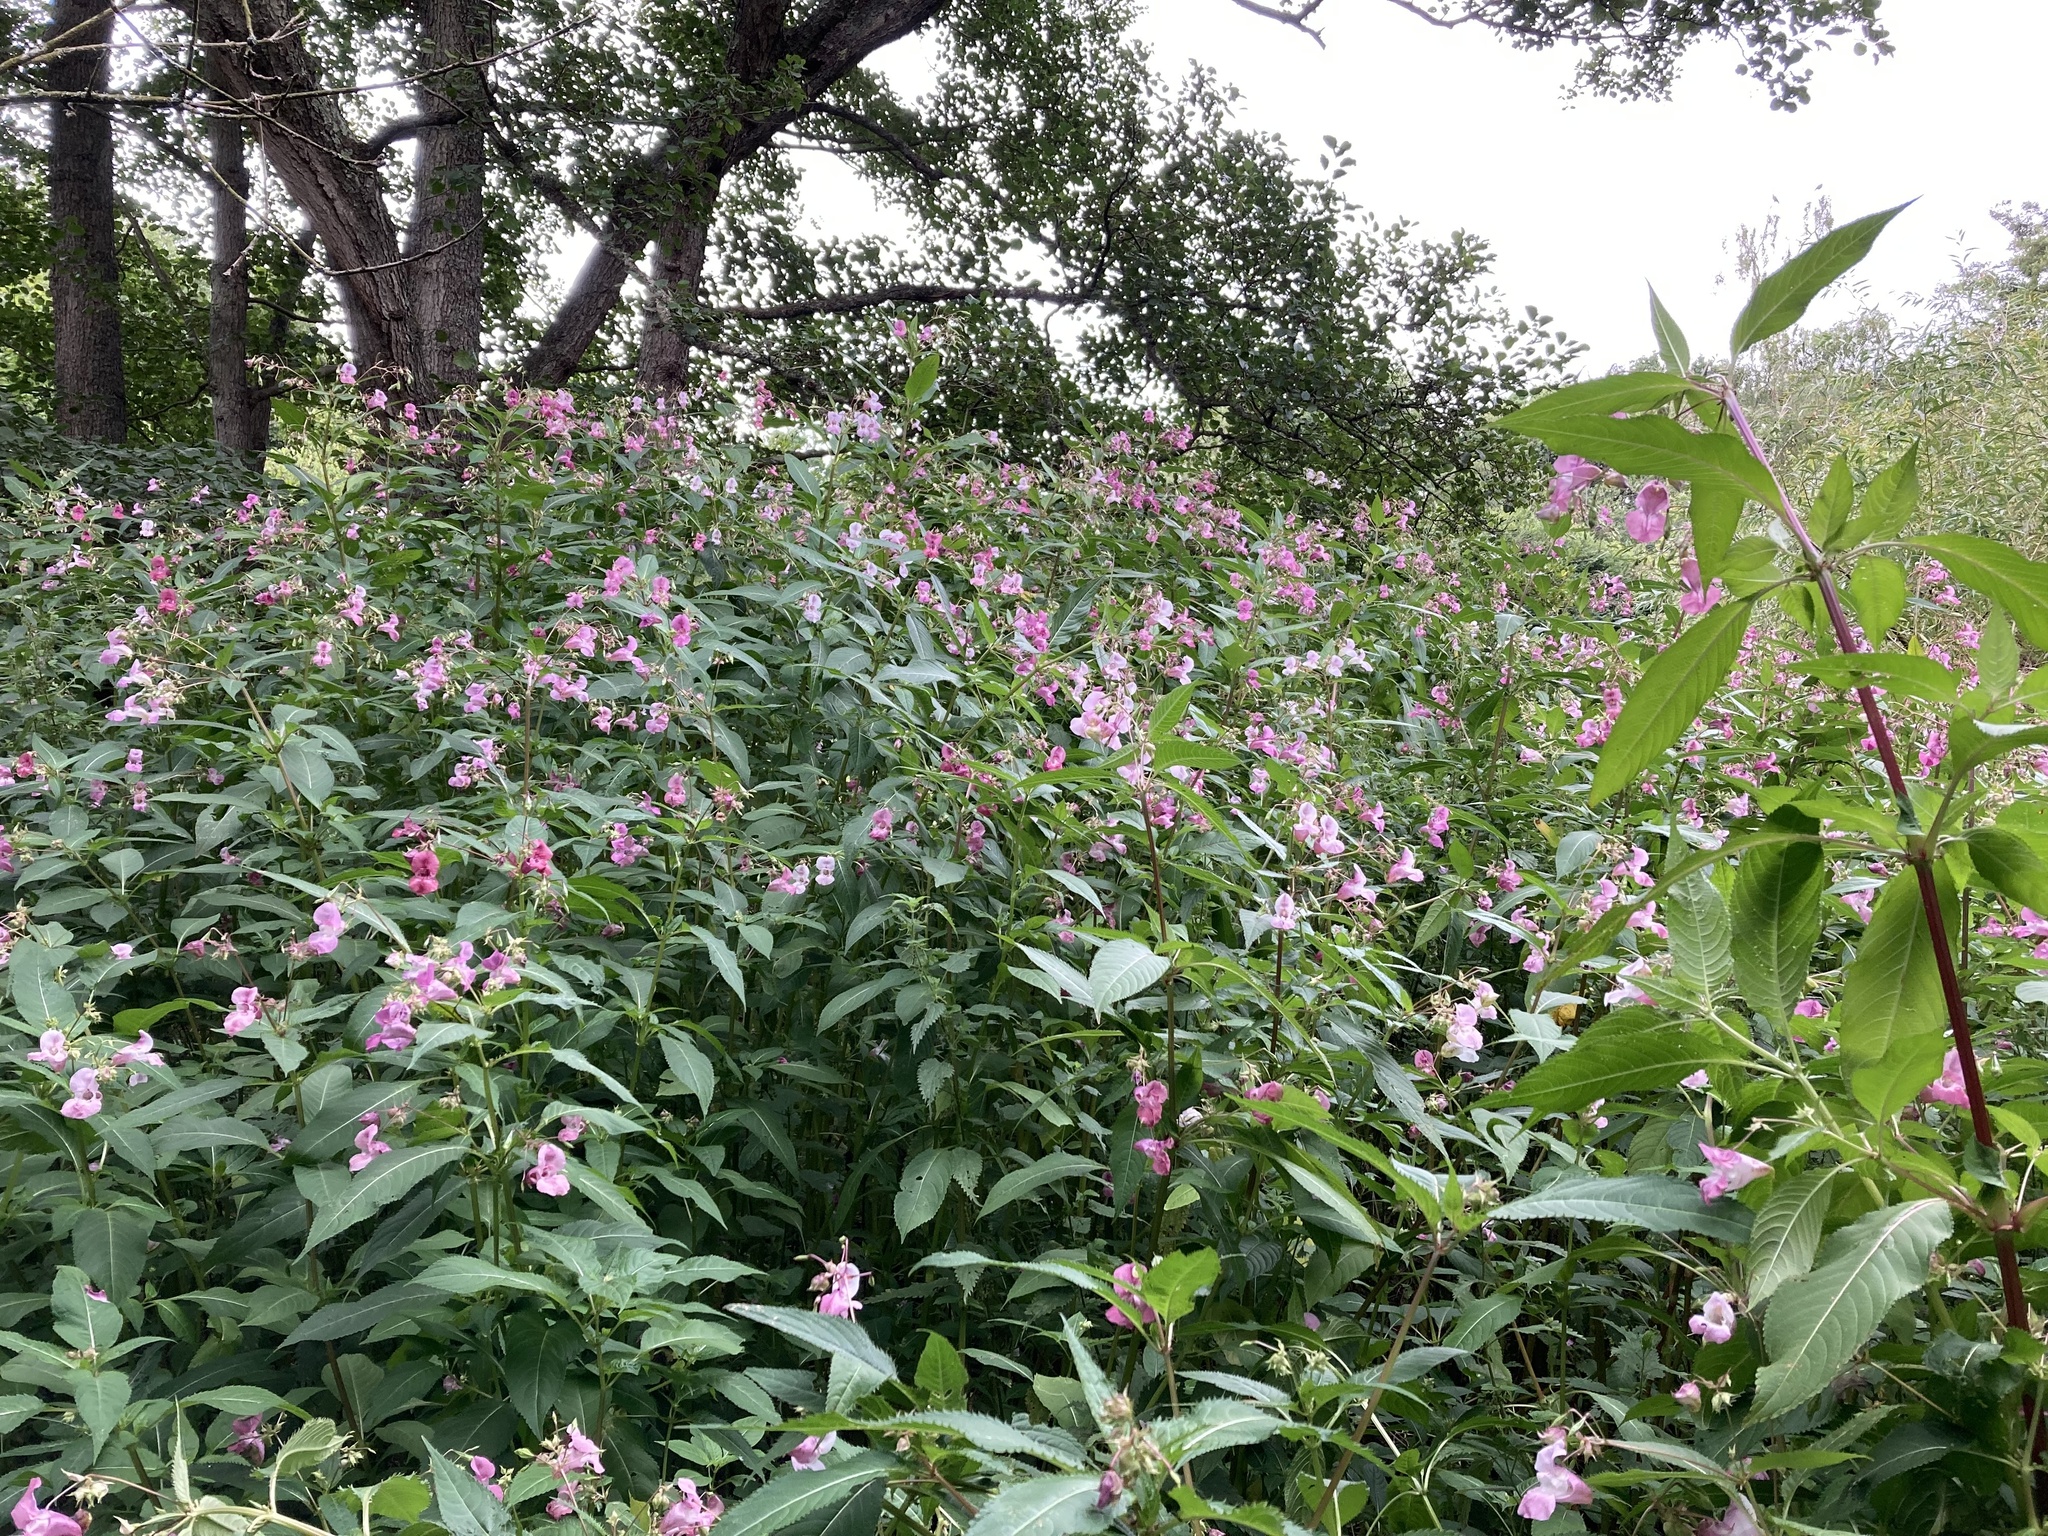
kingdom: Plantae
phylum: Tracheophyta
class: Magnoliopsida
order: Ericales
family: Balsaminaceae
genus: Impatiens
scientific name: Impatiens glandulifera
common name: Himalayan balsam
